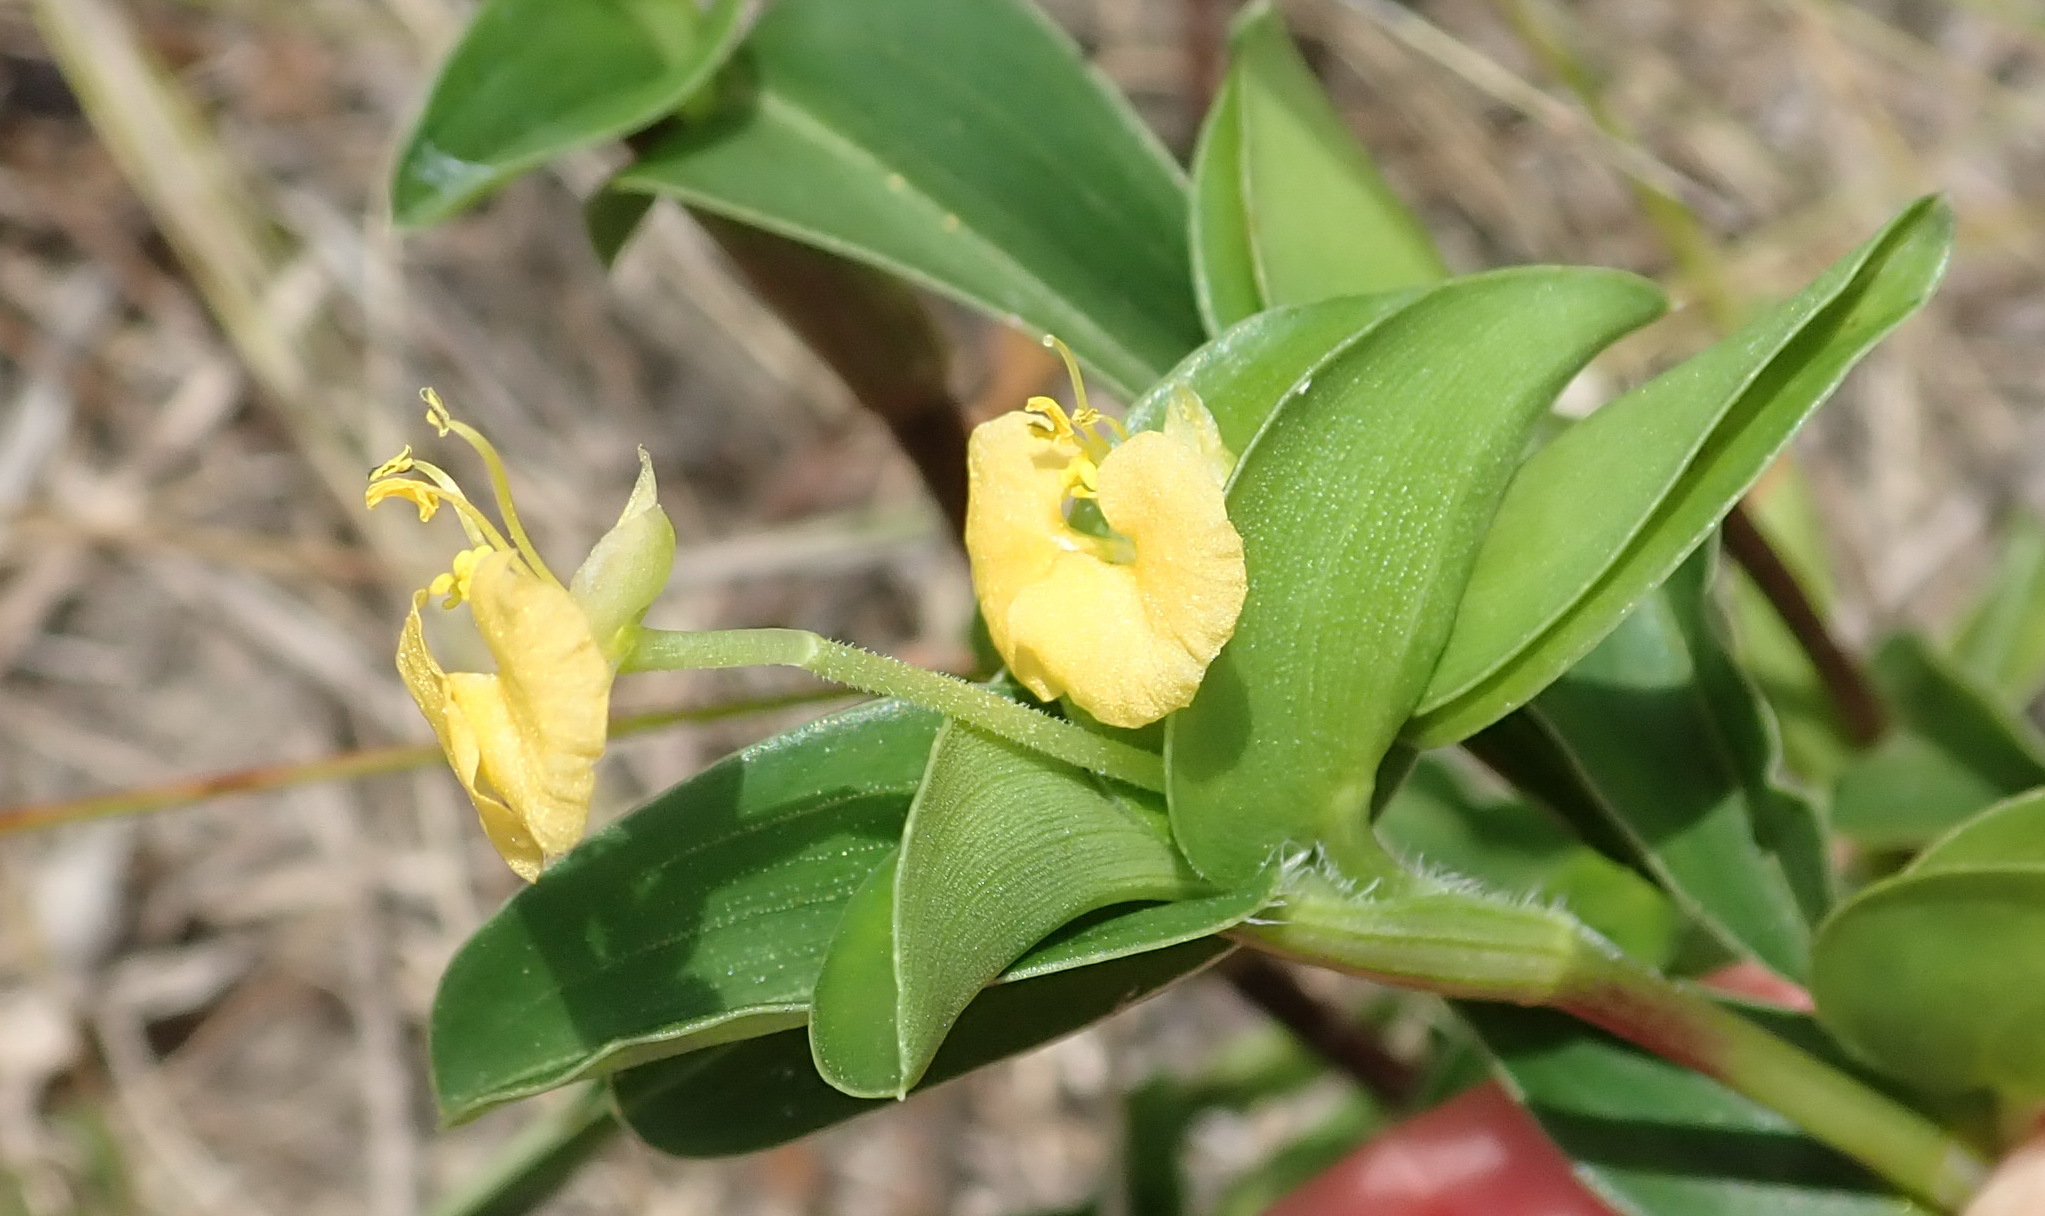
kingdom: Plantae
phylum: Tracheophyta
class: Liliopsida
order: Commelinales
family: Commelinaceae
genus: Commelina
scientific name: Commelina africana
